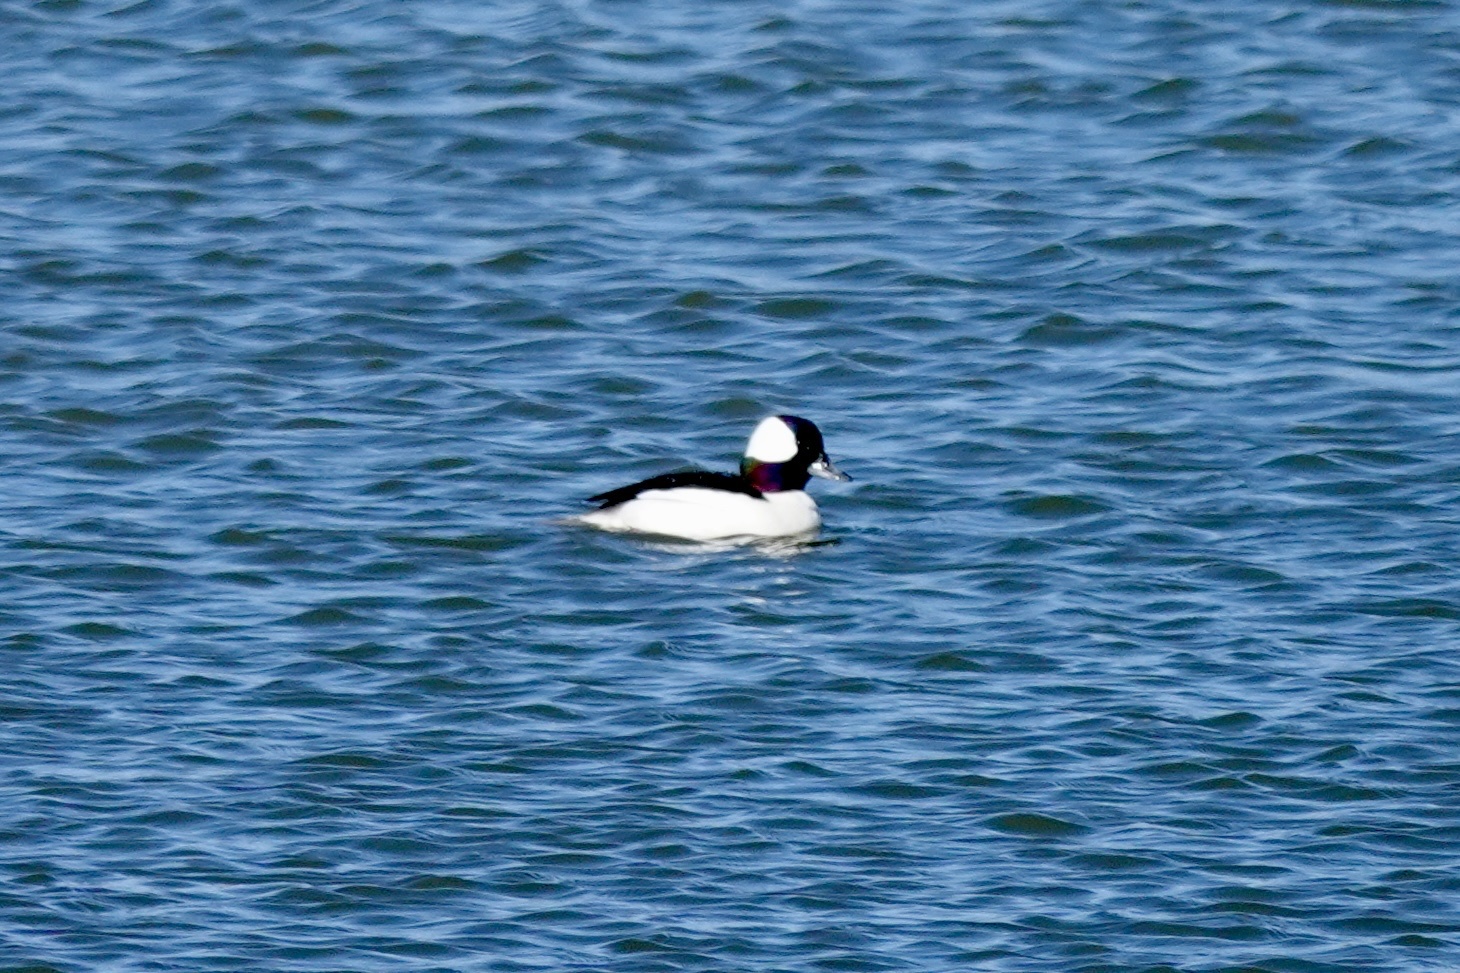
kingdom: Animalia
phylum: Chordata
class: Aves
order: Anseriformes
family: Anatidae
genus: Bucephala
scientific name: Bucephala albeola
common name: Bufflehead
